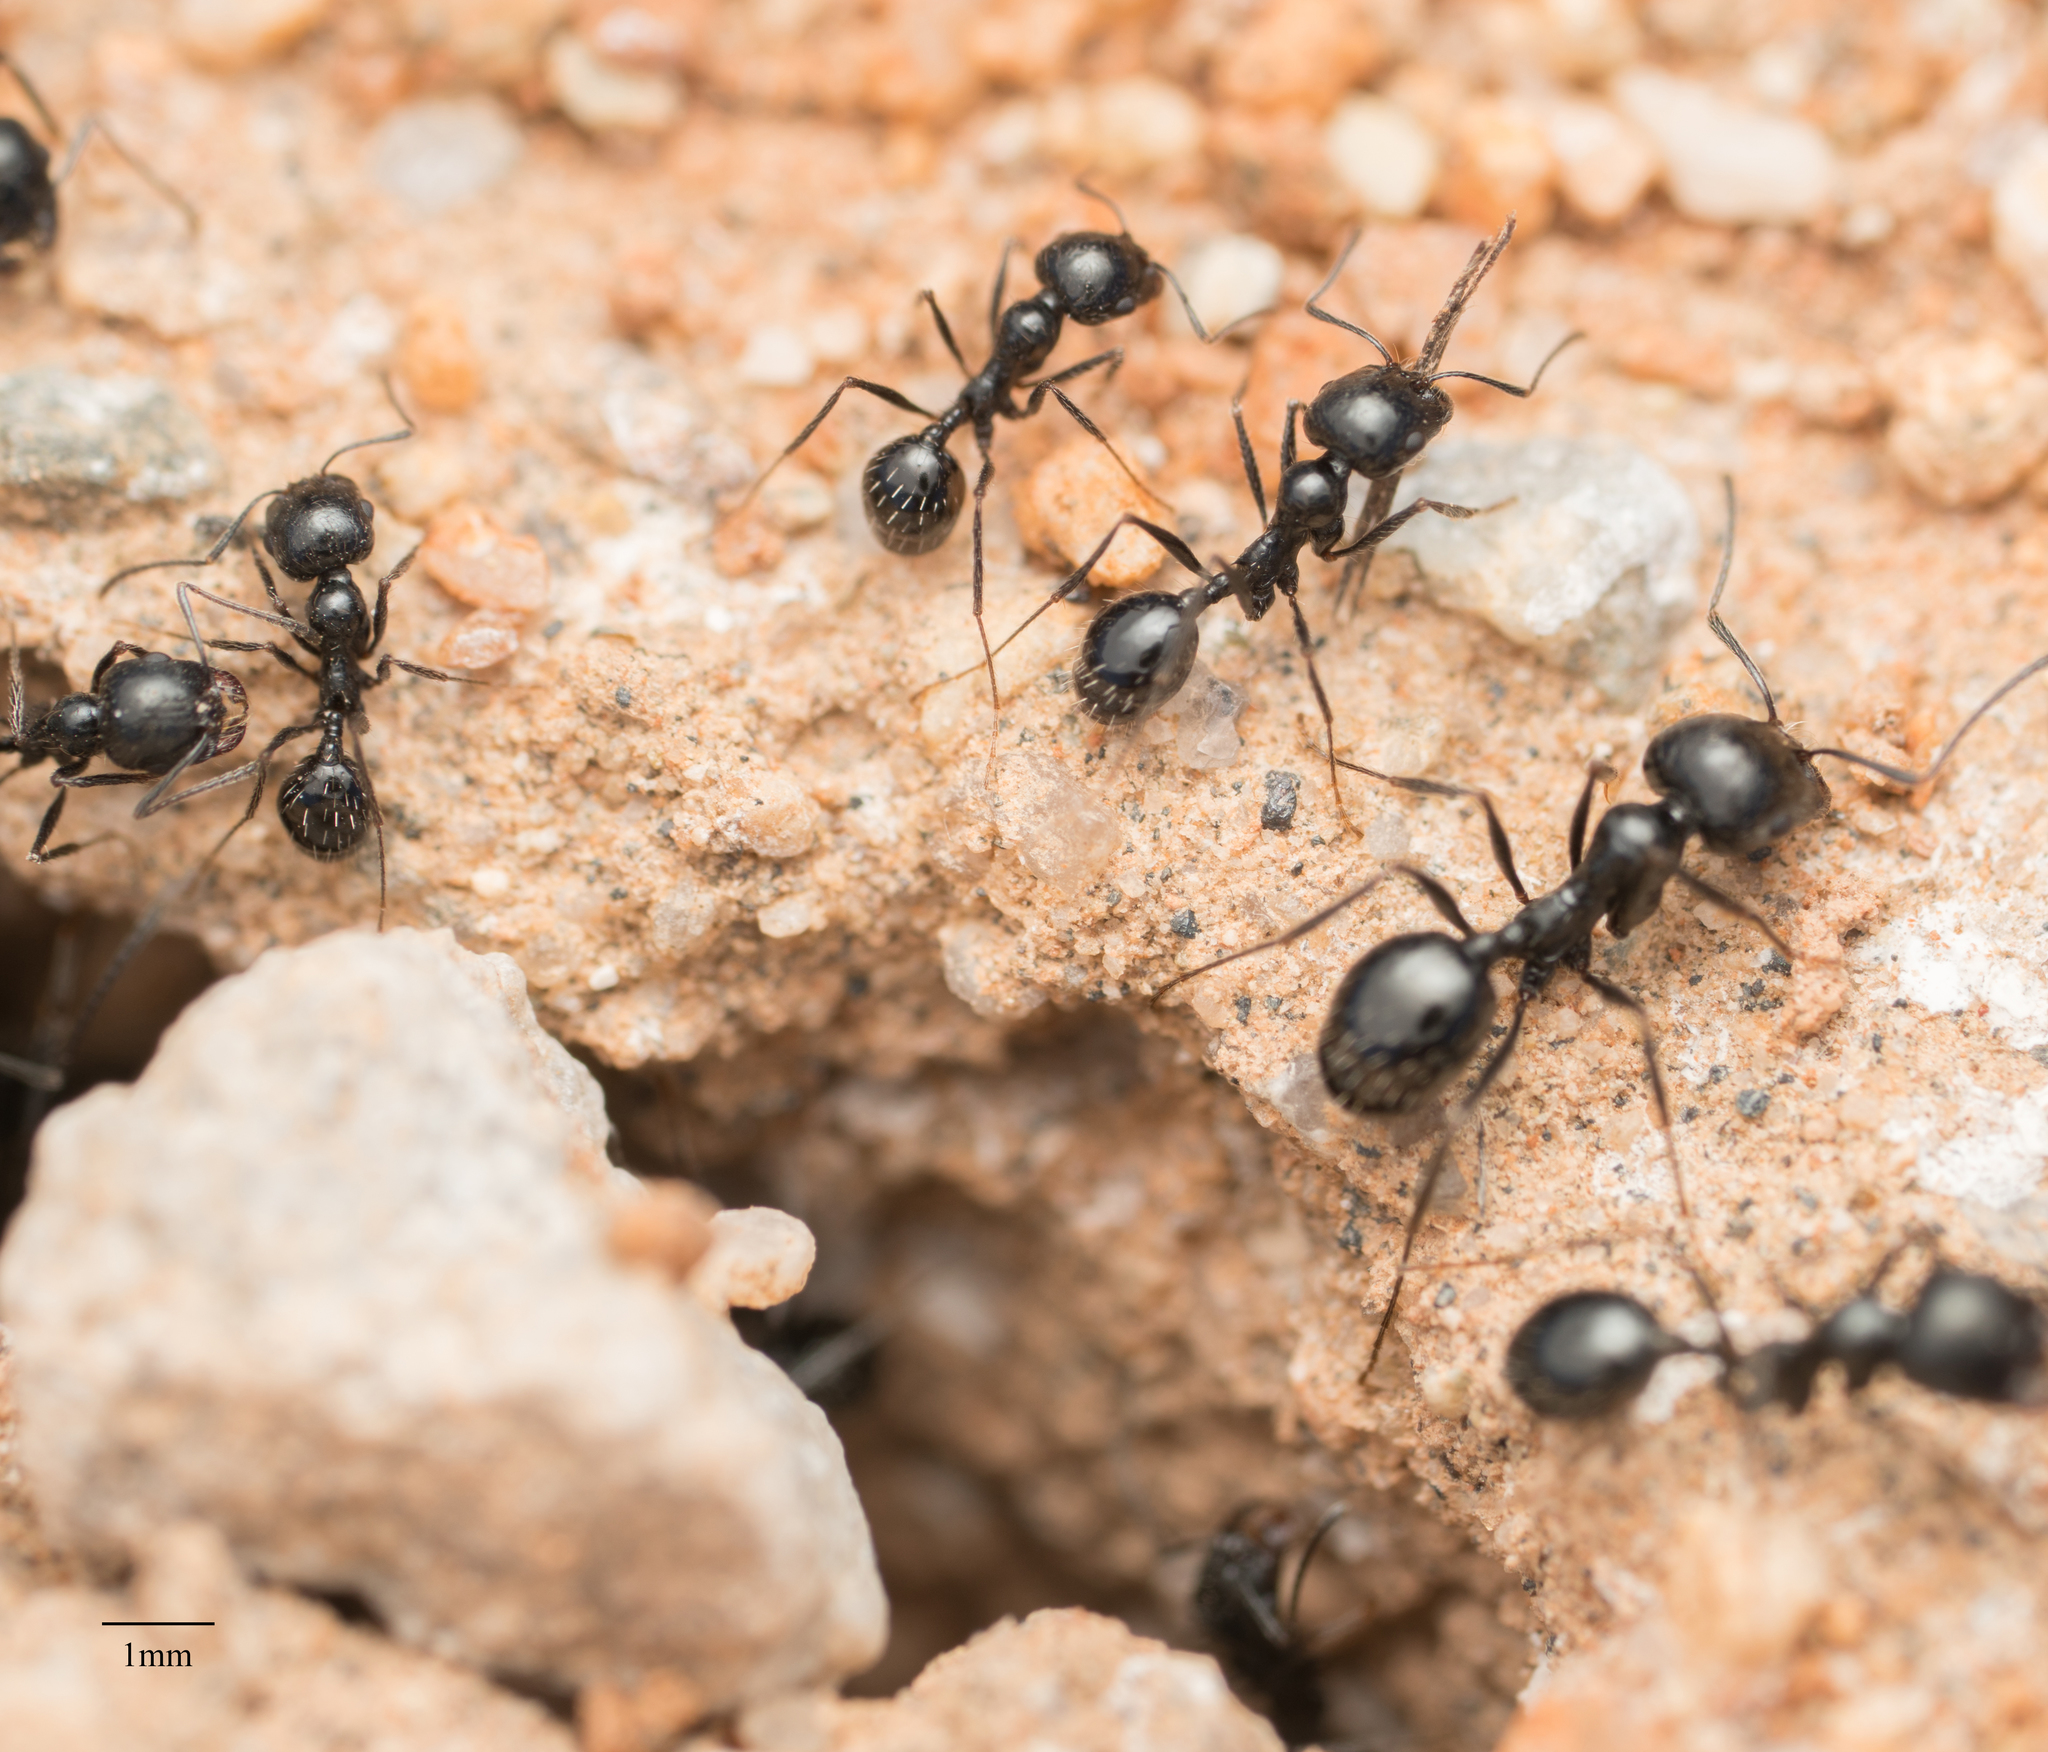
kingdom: Animalia
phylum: Arthropoda
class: Insecta
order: Hymenoptera
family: Formicidae
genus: Messor
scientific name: Messor pergandei
